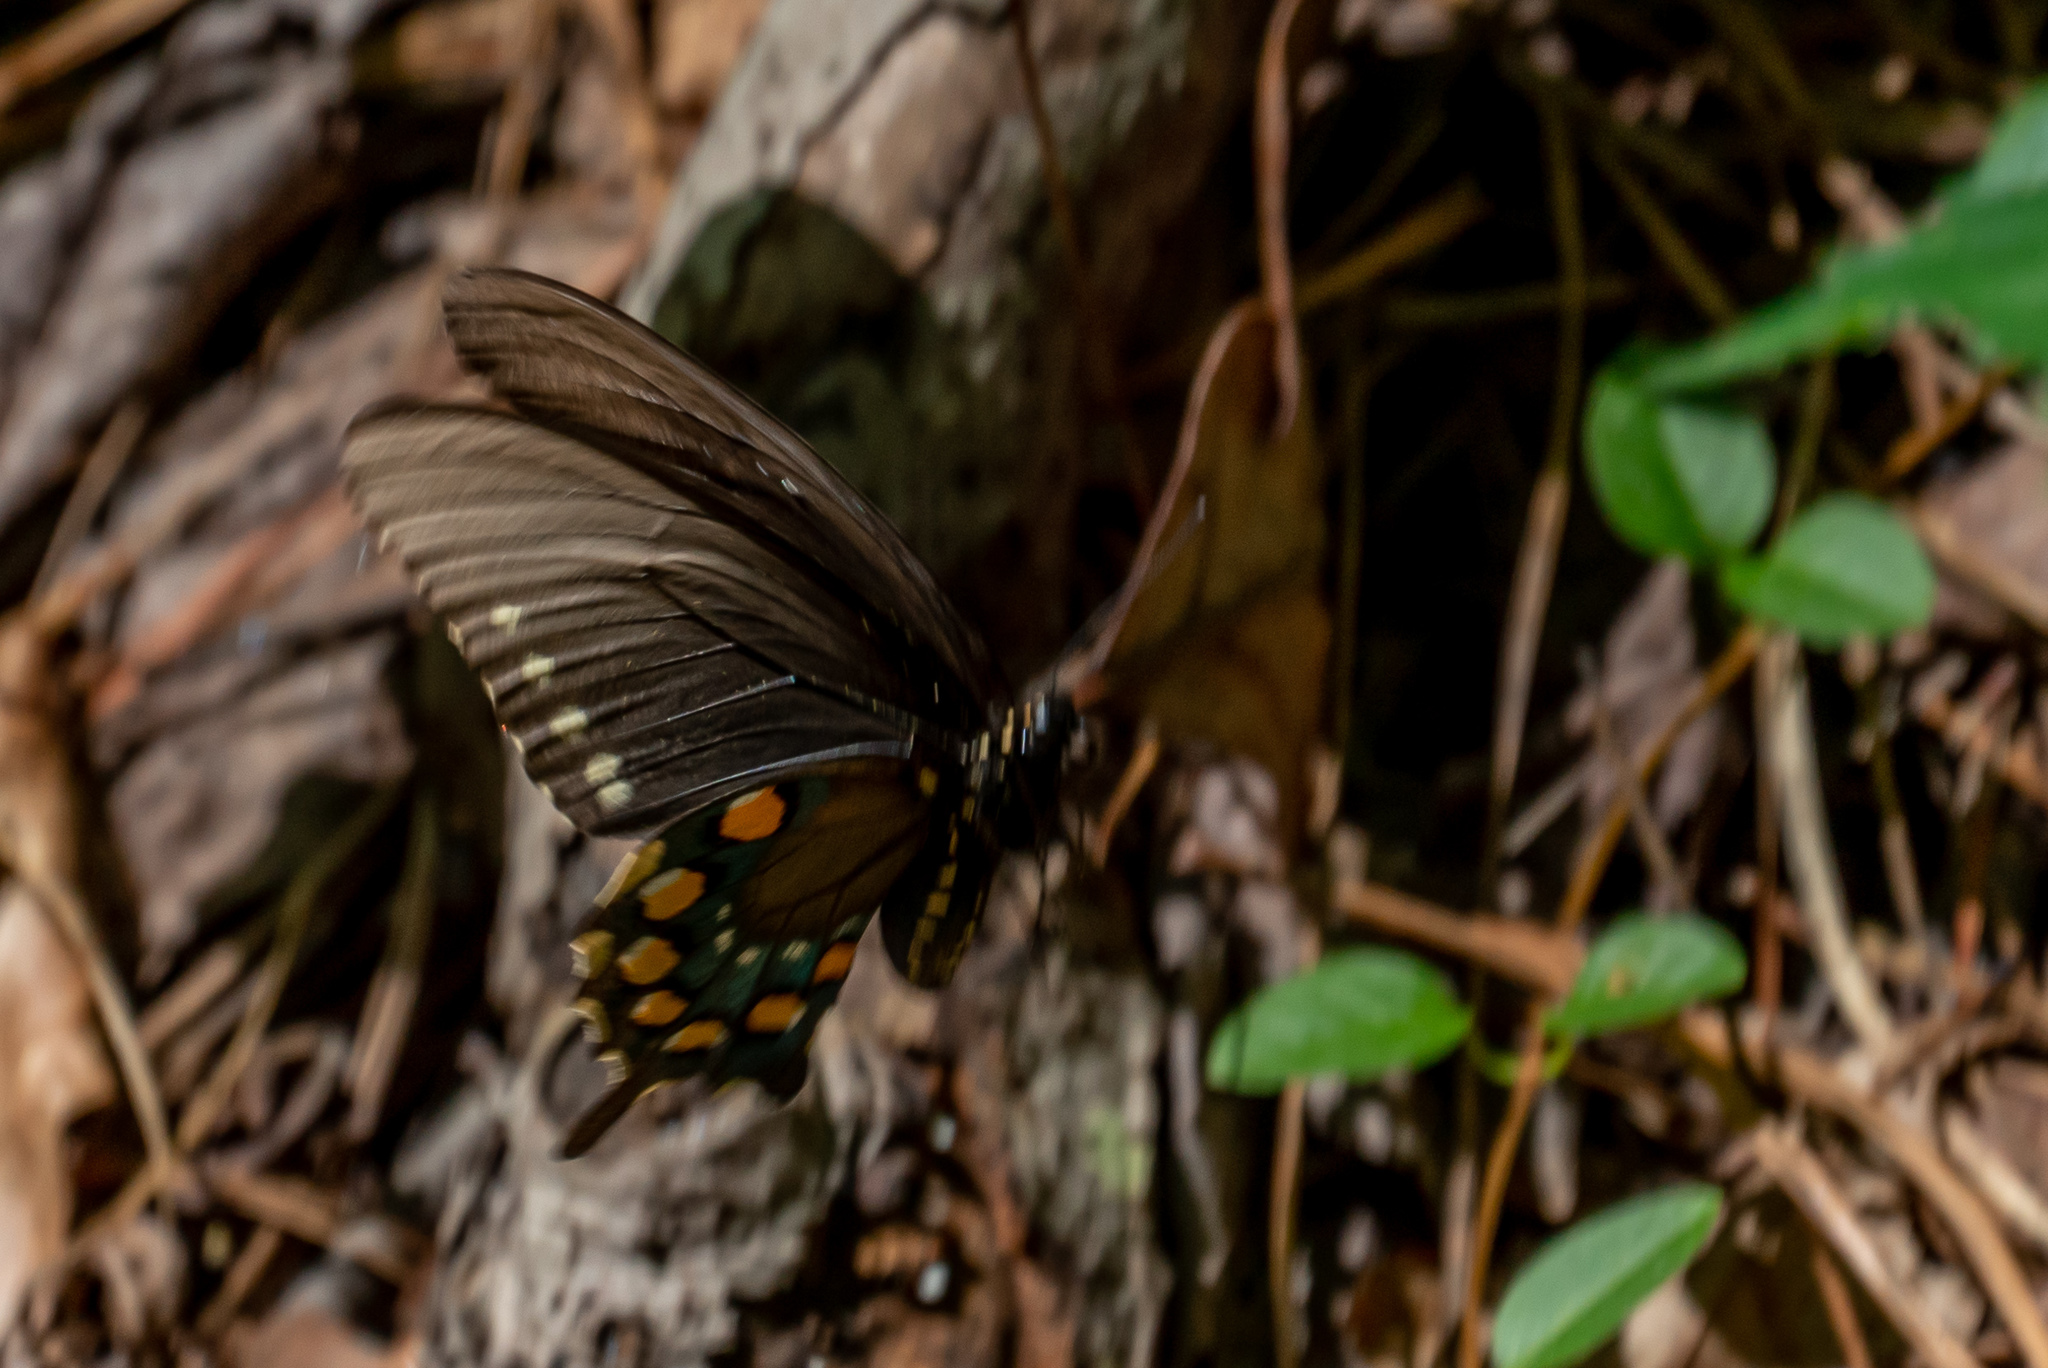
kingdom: Animalia
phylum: Arthropoda
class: Insecta
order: Lepidoptera
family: Papilionidae
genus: Battus
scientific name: Battus philenor
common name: Pipevine swallowtail
